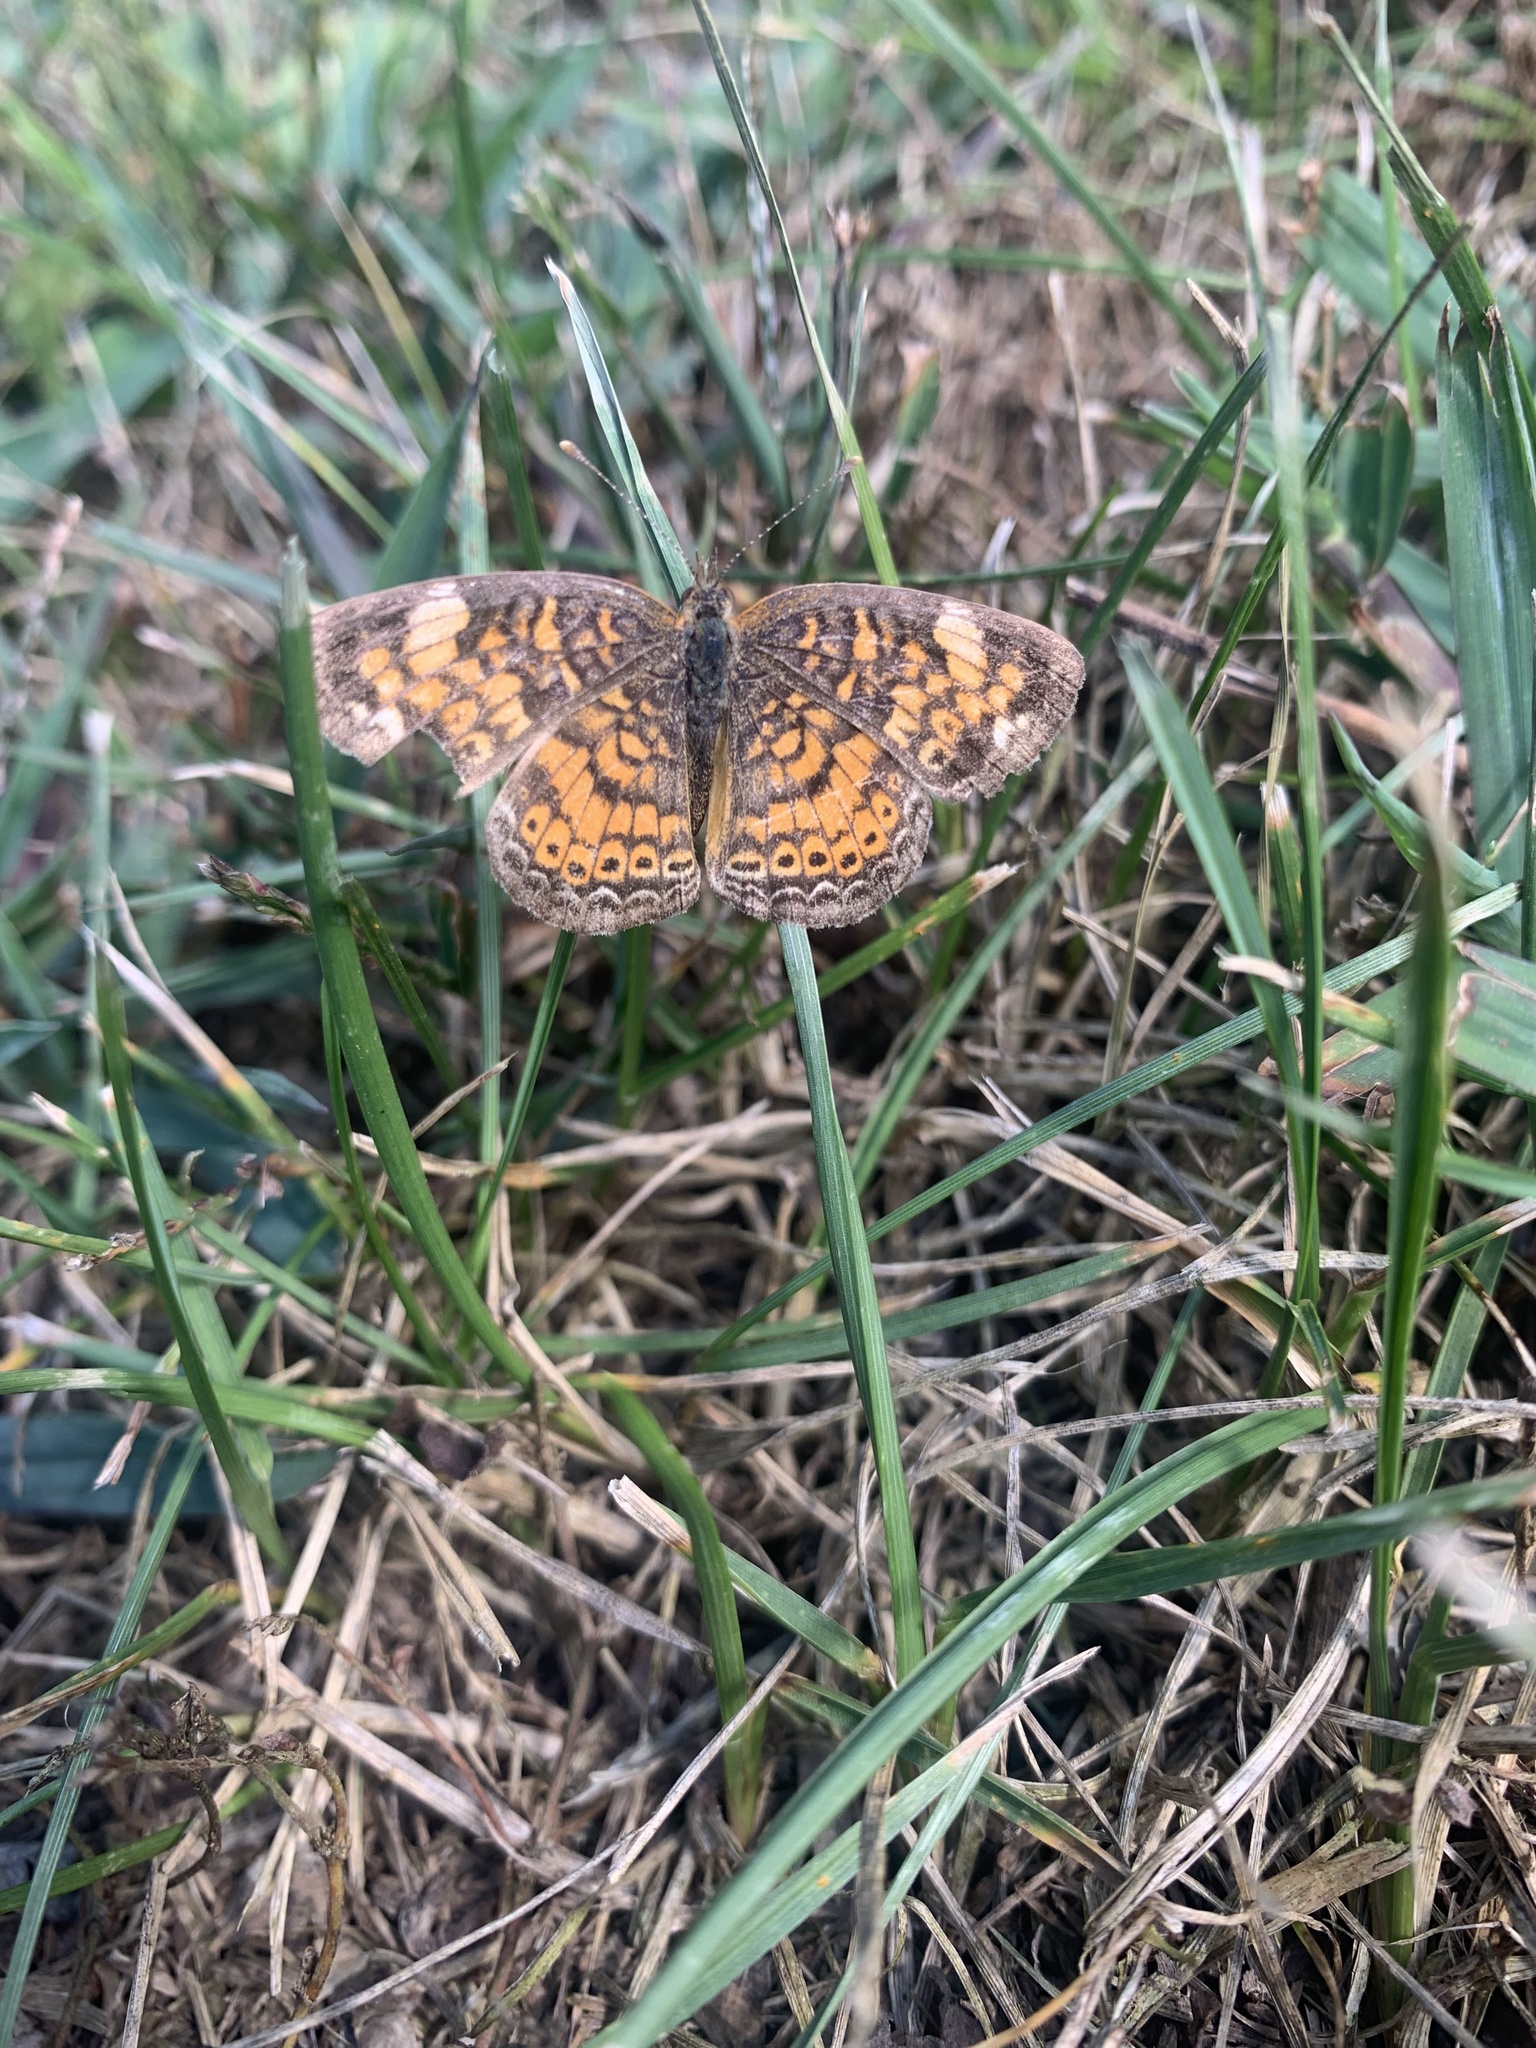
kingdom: Animalia
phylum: Arthropoda
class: Insecta
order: Lepidoptera
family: Nymphalidae
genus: Phyciodes
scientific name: Phyciodes tharos
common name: Pearl crescent
